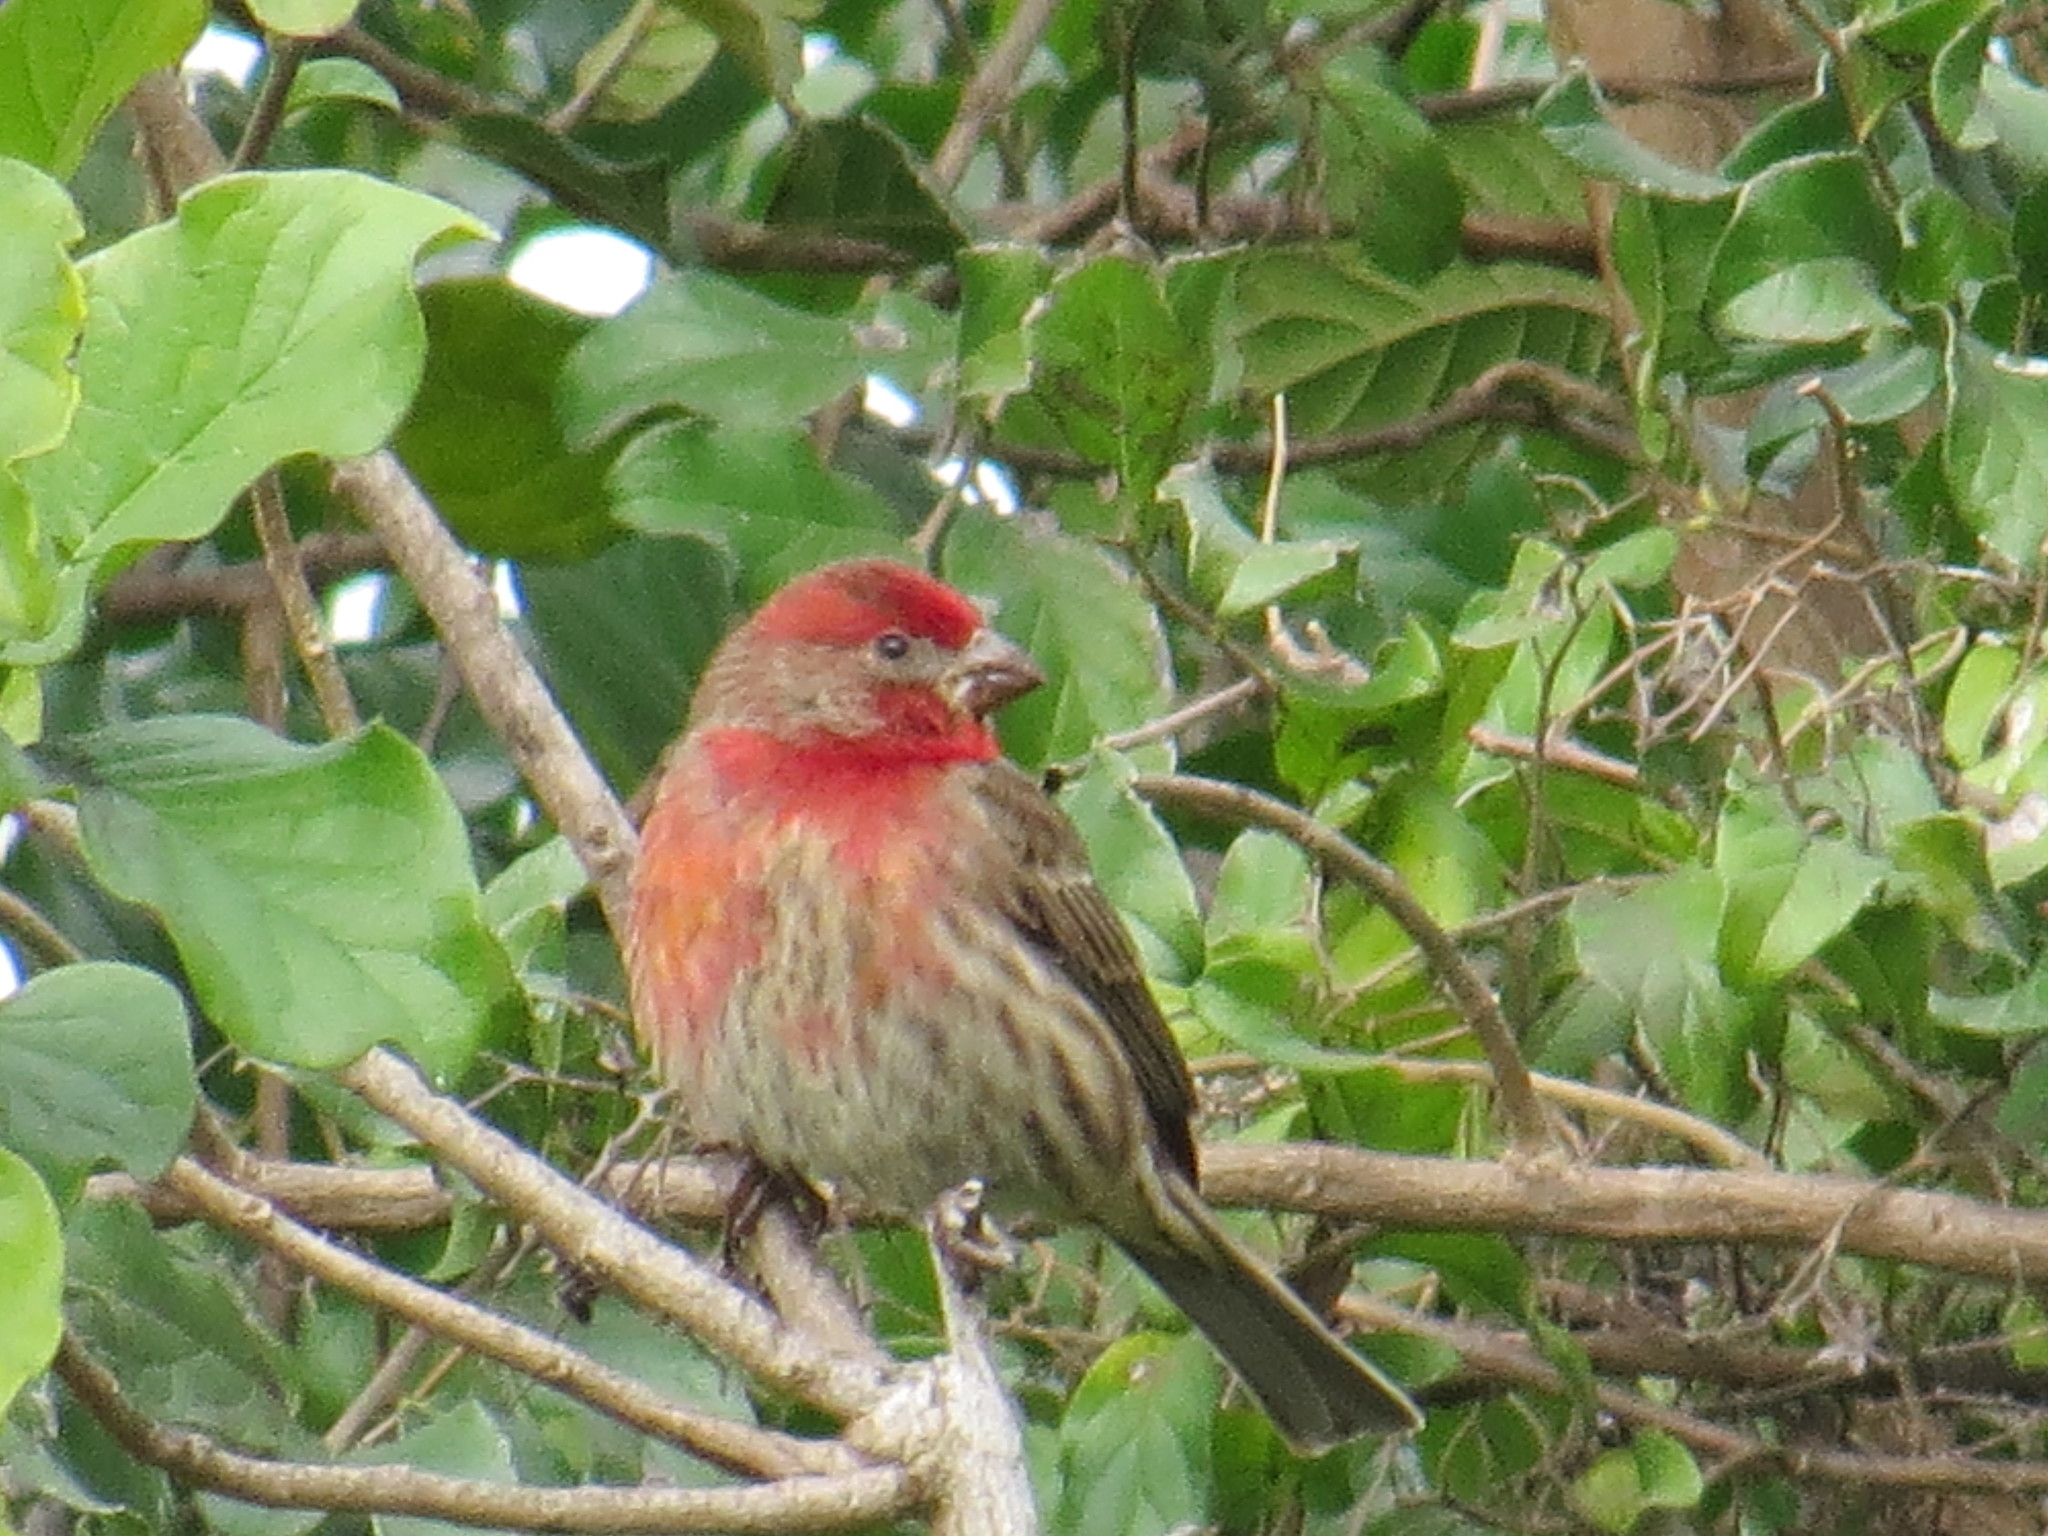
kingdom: Animalia
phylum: Chordata
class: Aves
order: Passeriformes
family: Fringillidae
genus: Haemorhous
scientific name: Haemorhous mexicanus
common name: House finch
